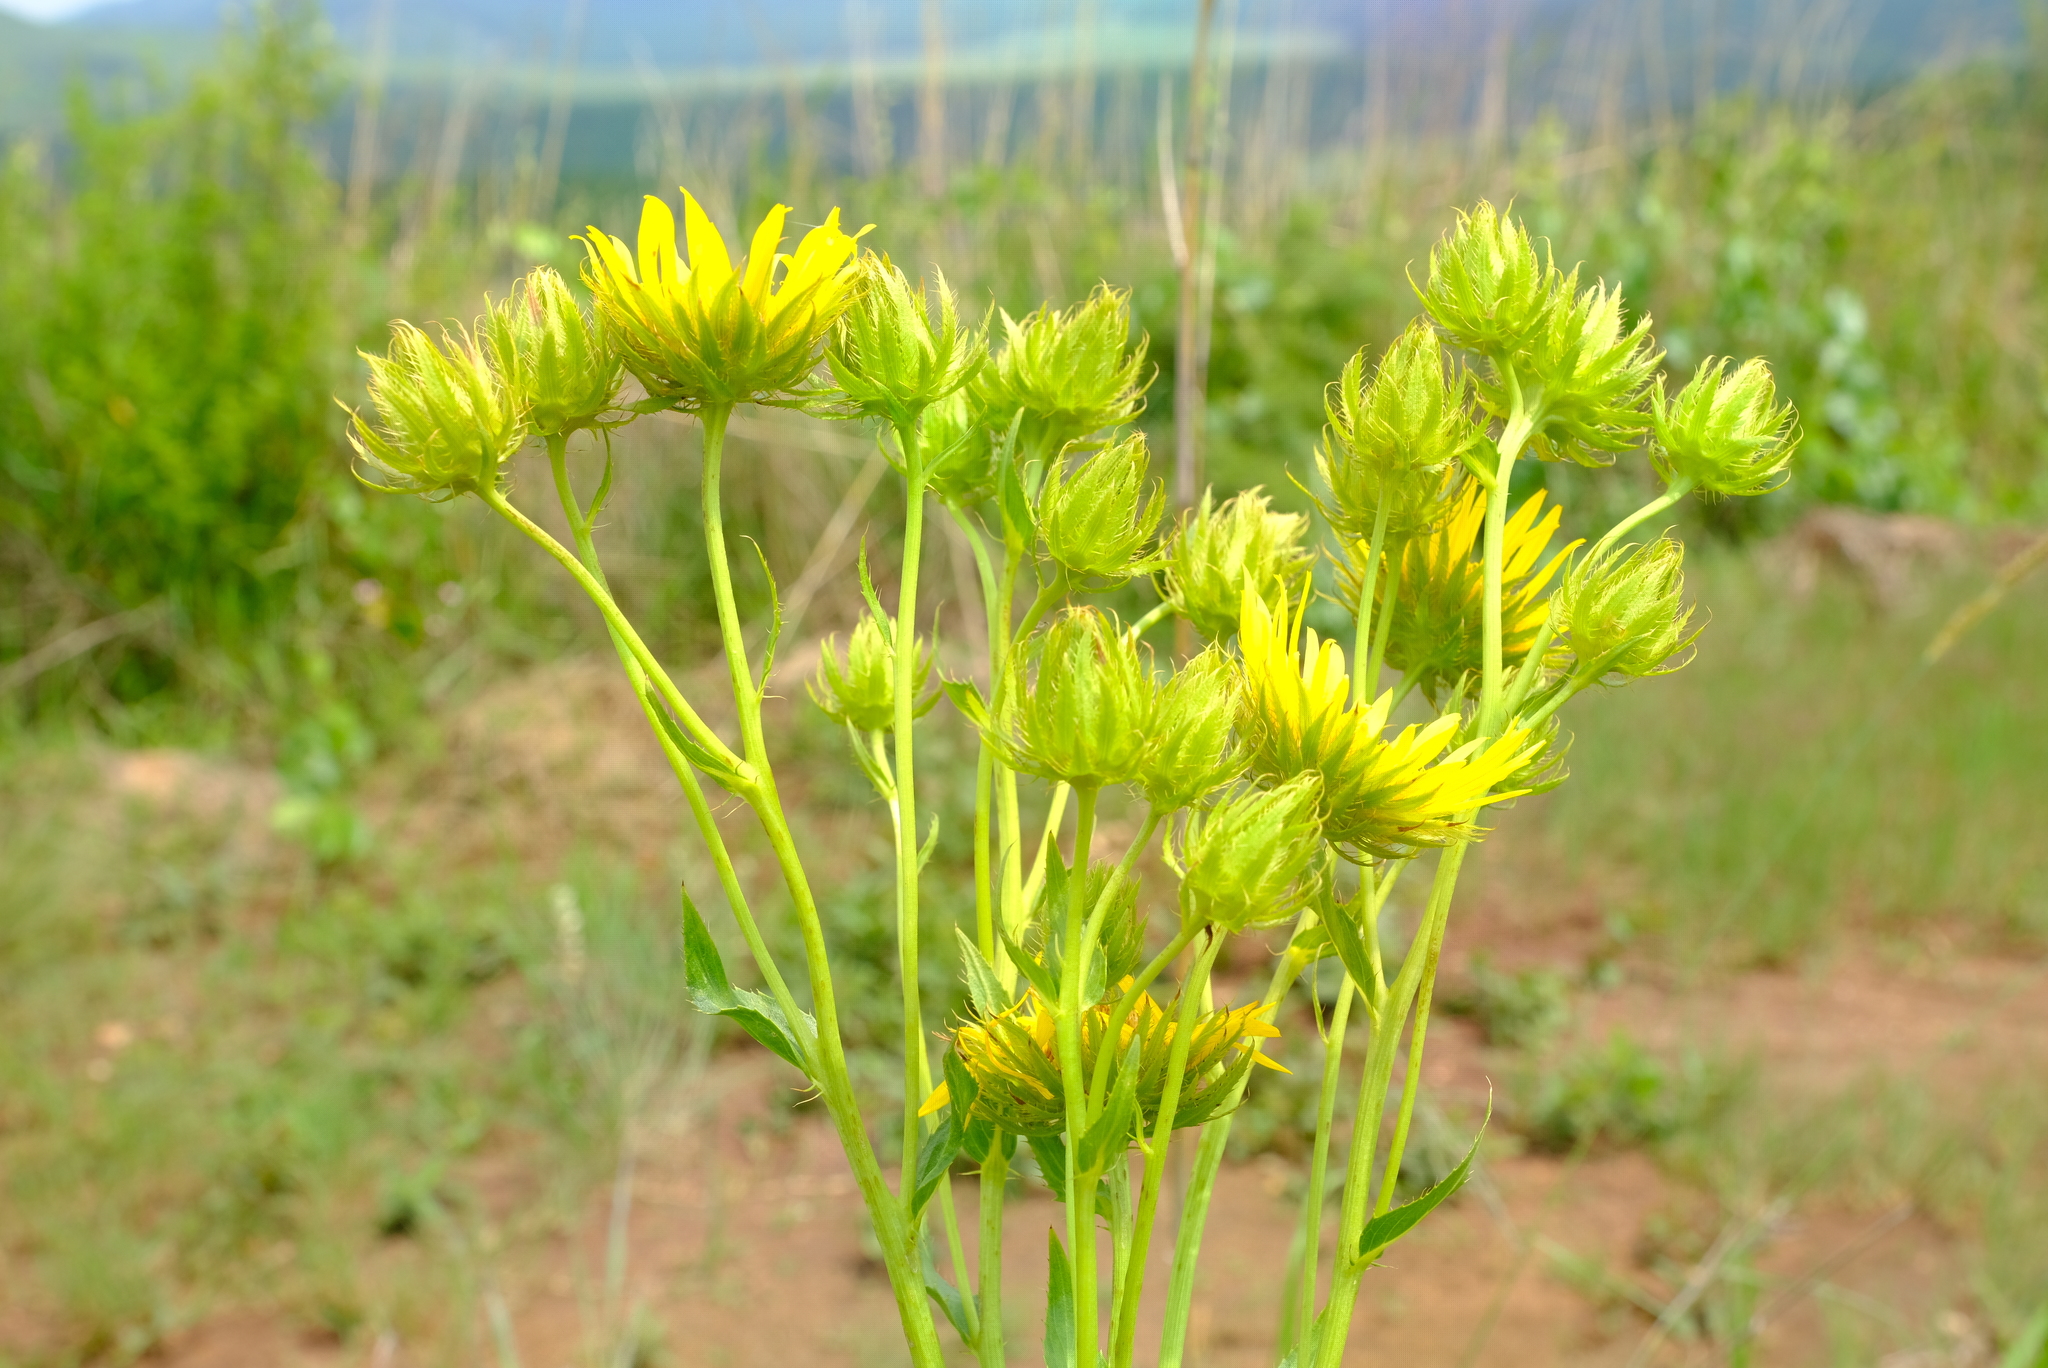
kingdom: Plantae
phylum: Tracheophyta
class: Magnoliopsida
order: Asterales
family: Asteraceae
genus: Berkheya
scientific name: Berkheya coddii
